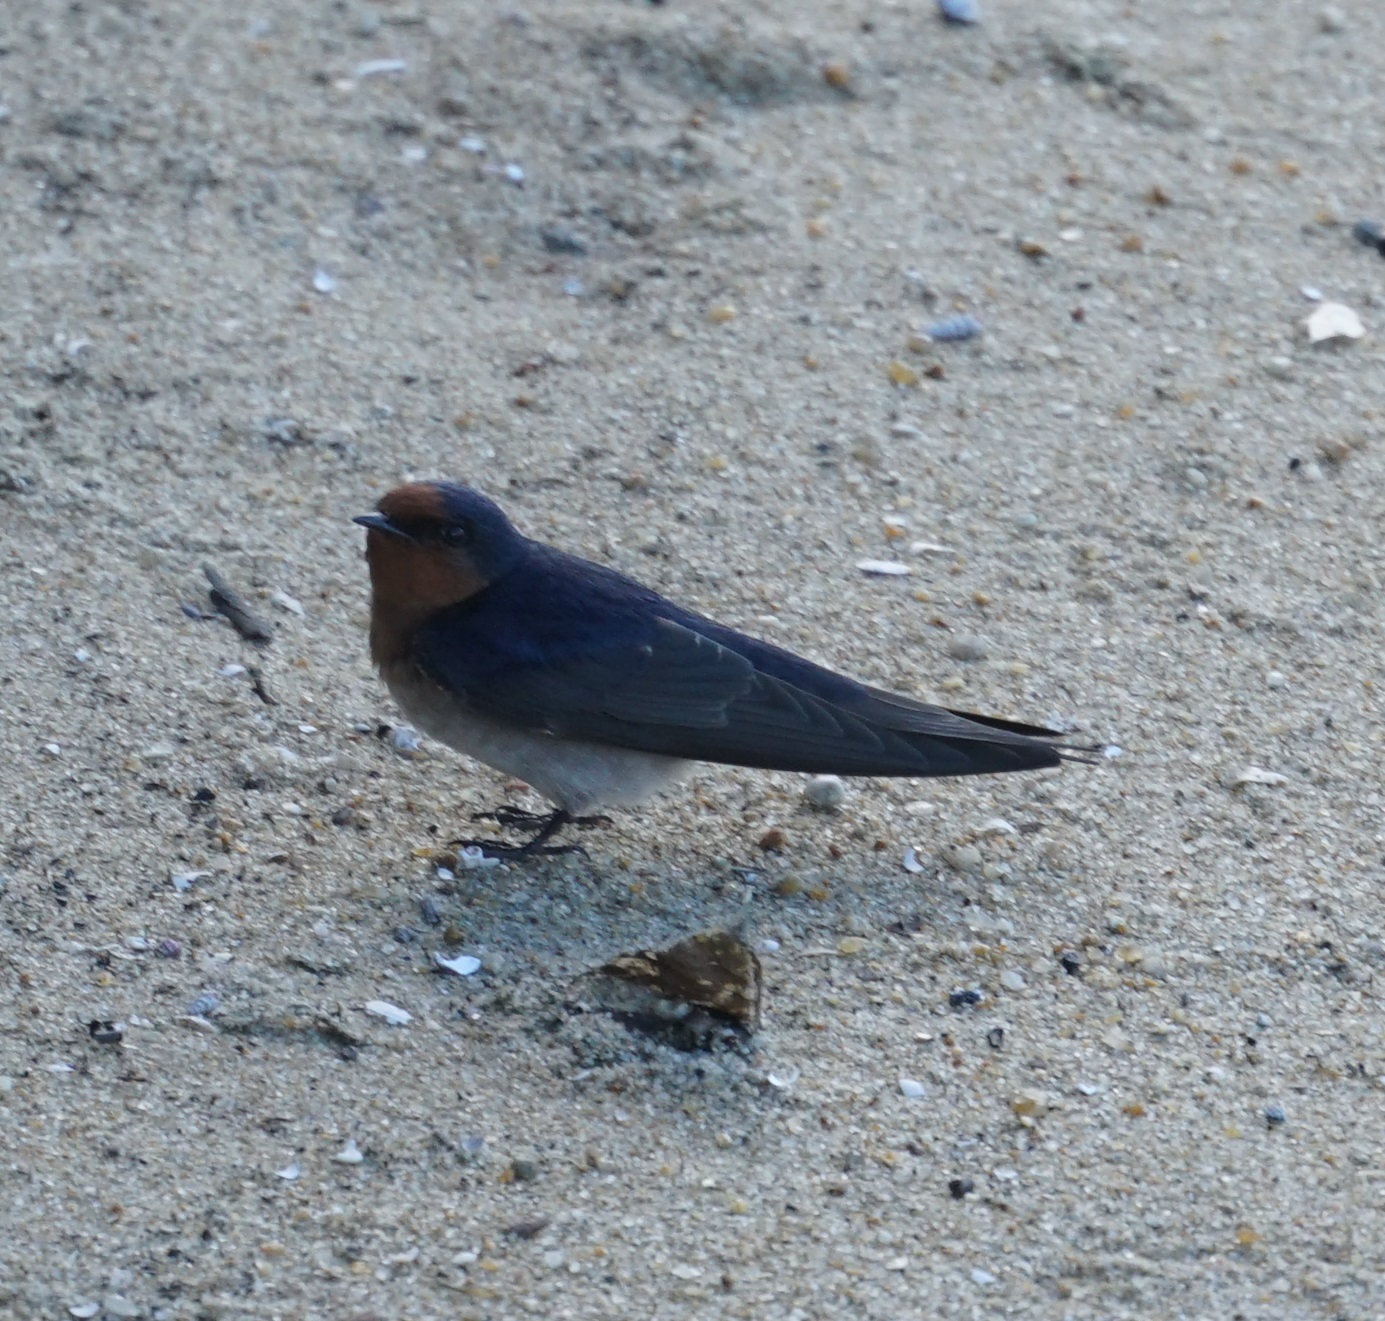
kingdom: Animalia
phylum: Chordata
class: Aves
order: Passeriformes
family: Hirundinidae
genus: Hirundo
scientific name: Hirundo neoxena
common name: Welcome swallow
